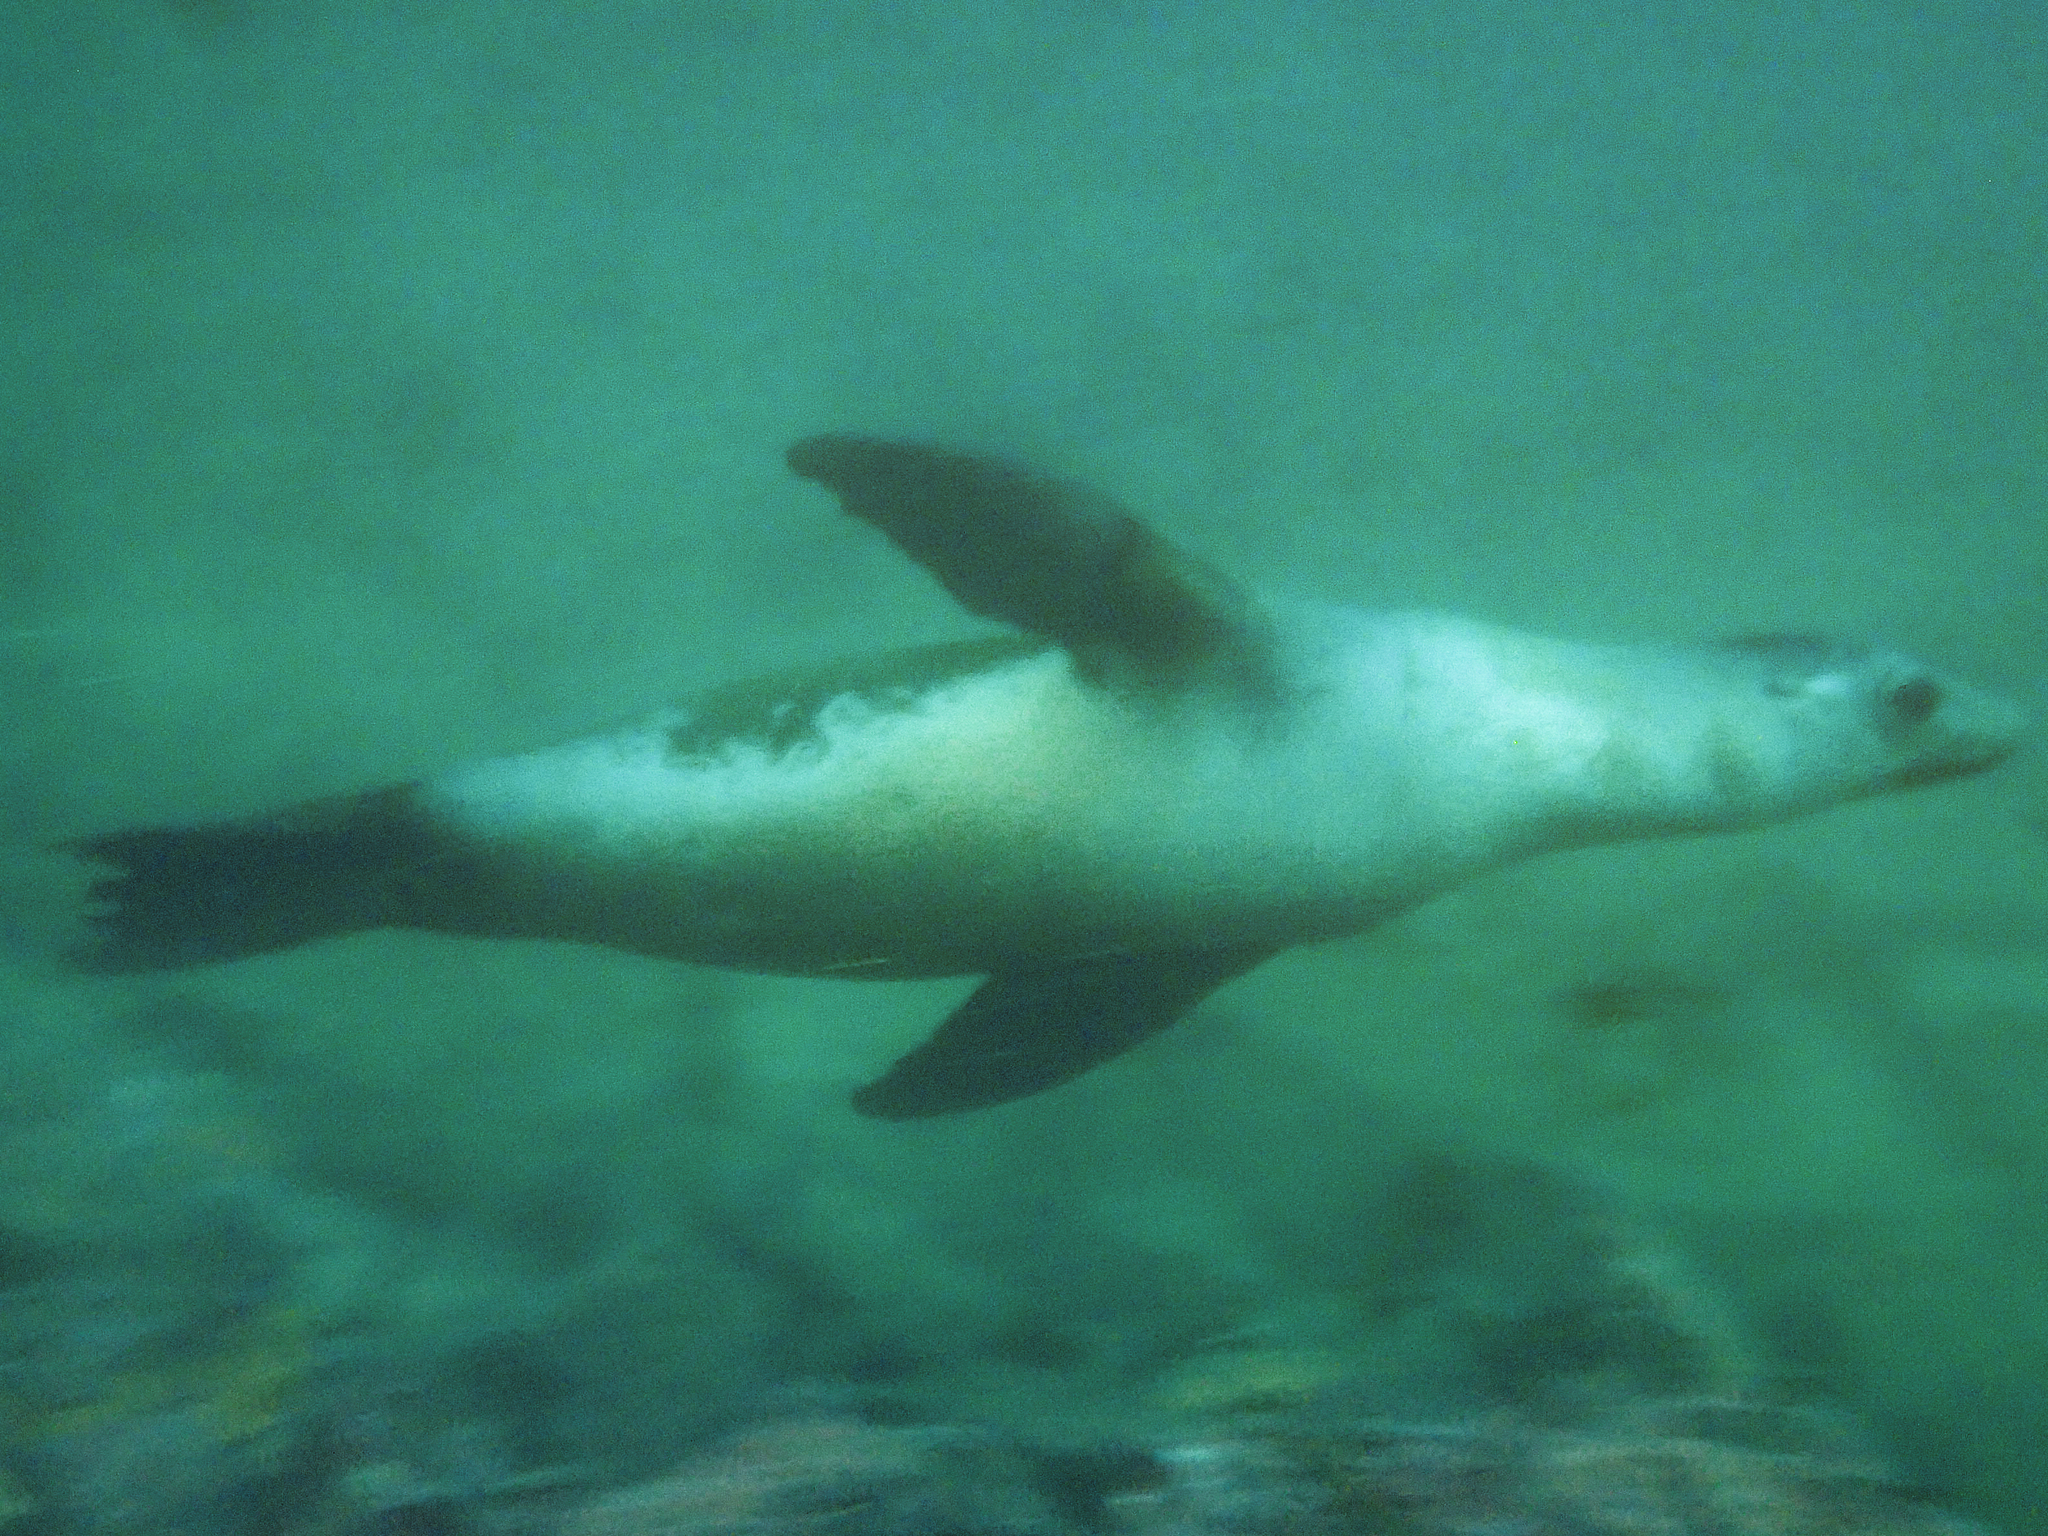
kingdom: Animalia
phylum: Chordata
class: Mammalia
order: Carnivora
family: Otariidae
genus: Zalophus
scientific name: Zalophus californianus
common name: California sea lion
